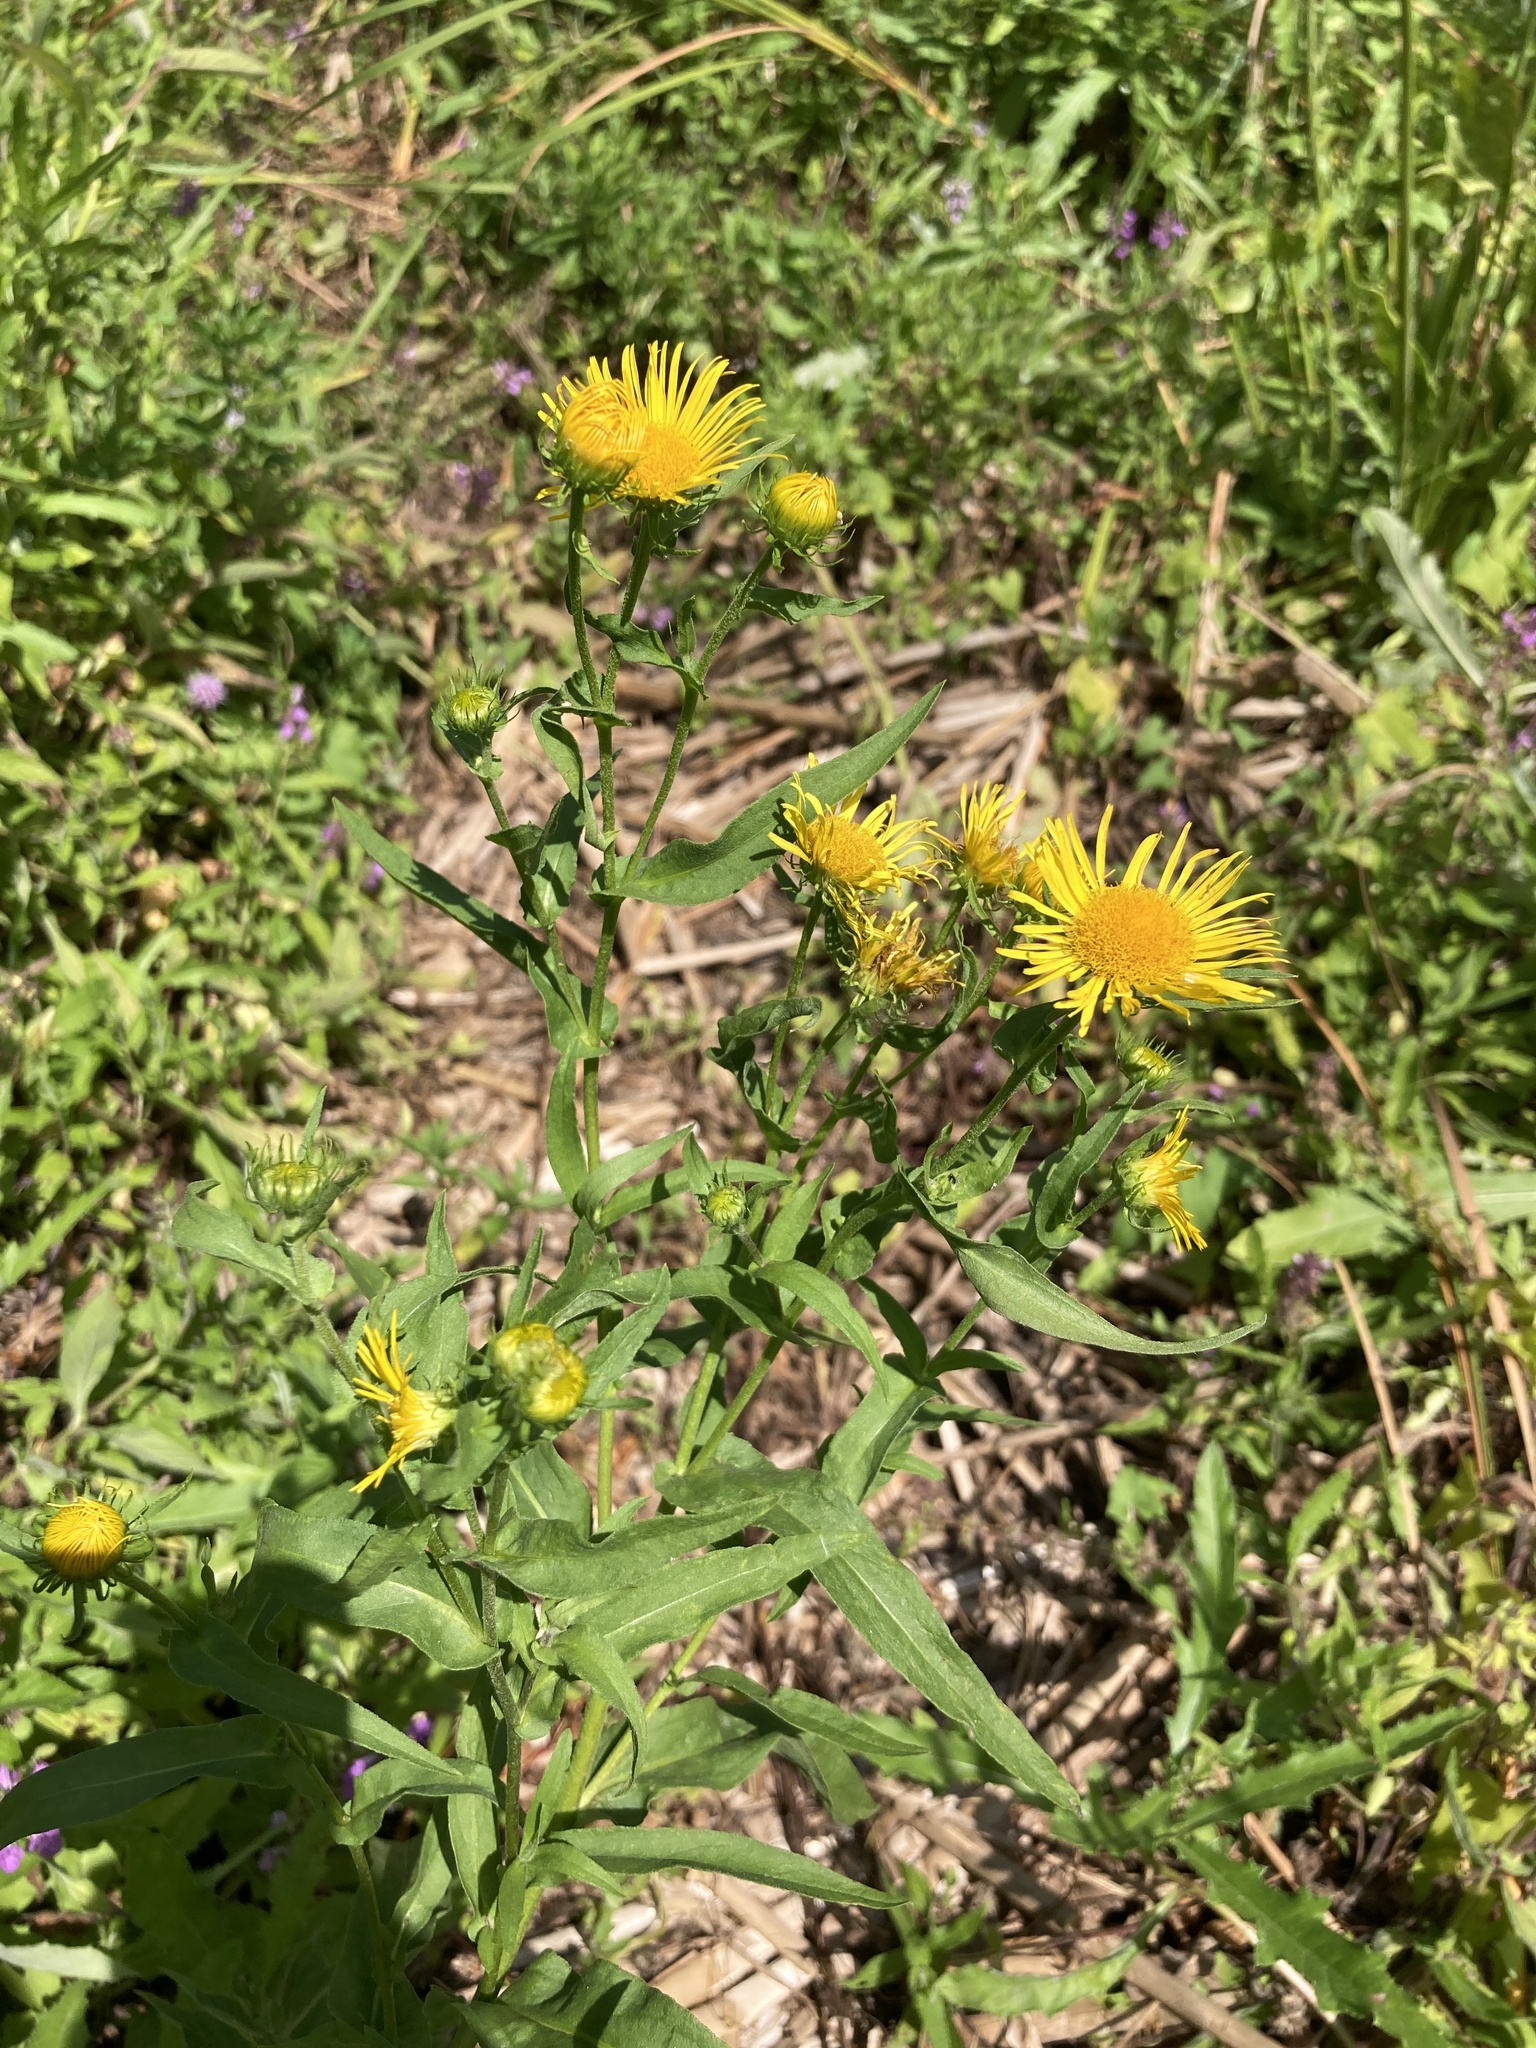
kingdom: Plantae
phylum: Tracheophyta
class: Magnoliopsida
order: Asterales
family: Asteraceae
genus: Pentanema
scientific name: Pentanema britannicum
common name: British elecampane
